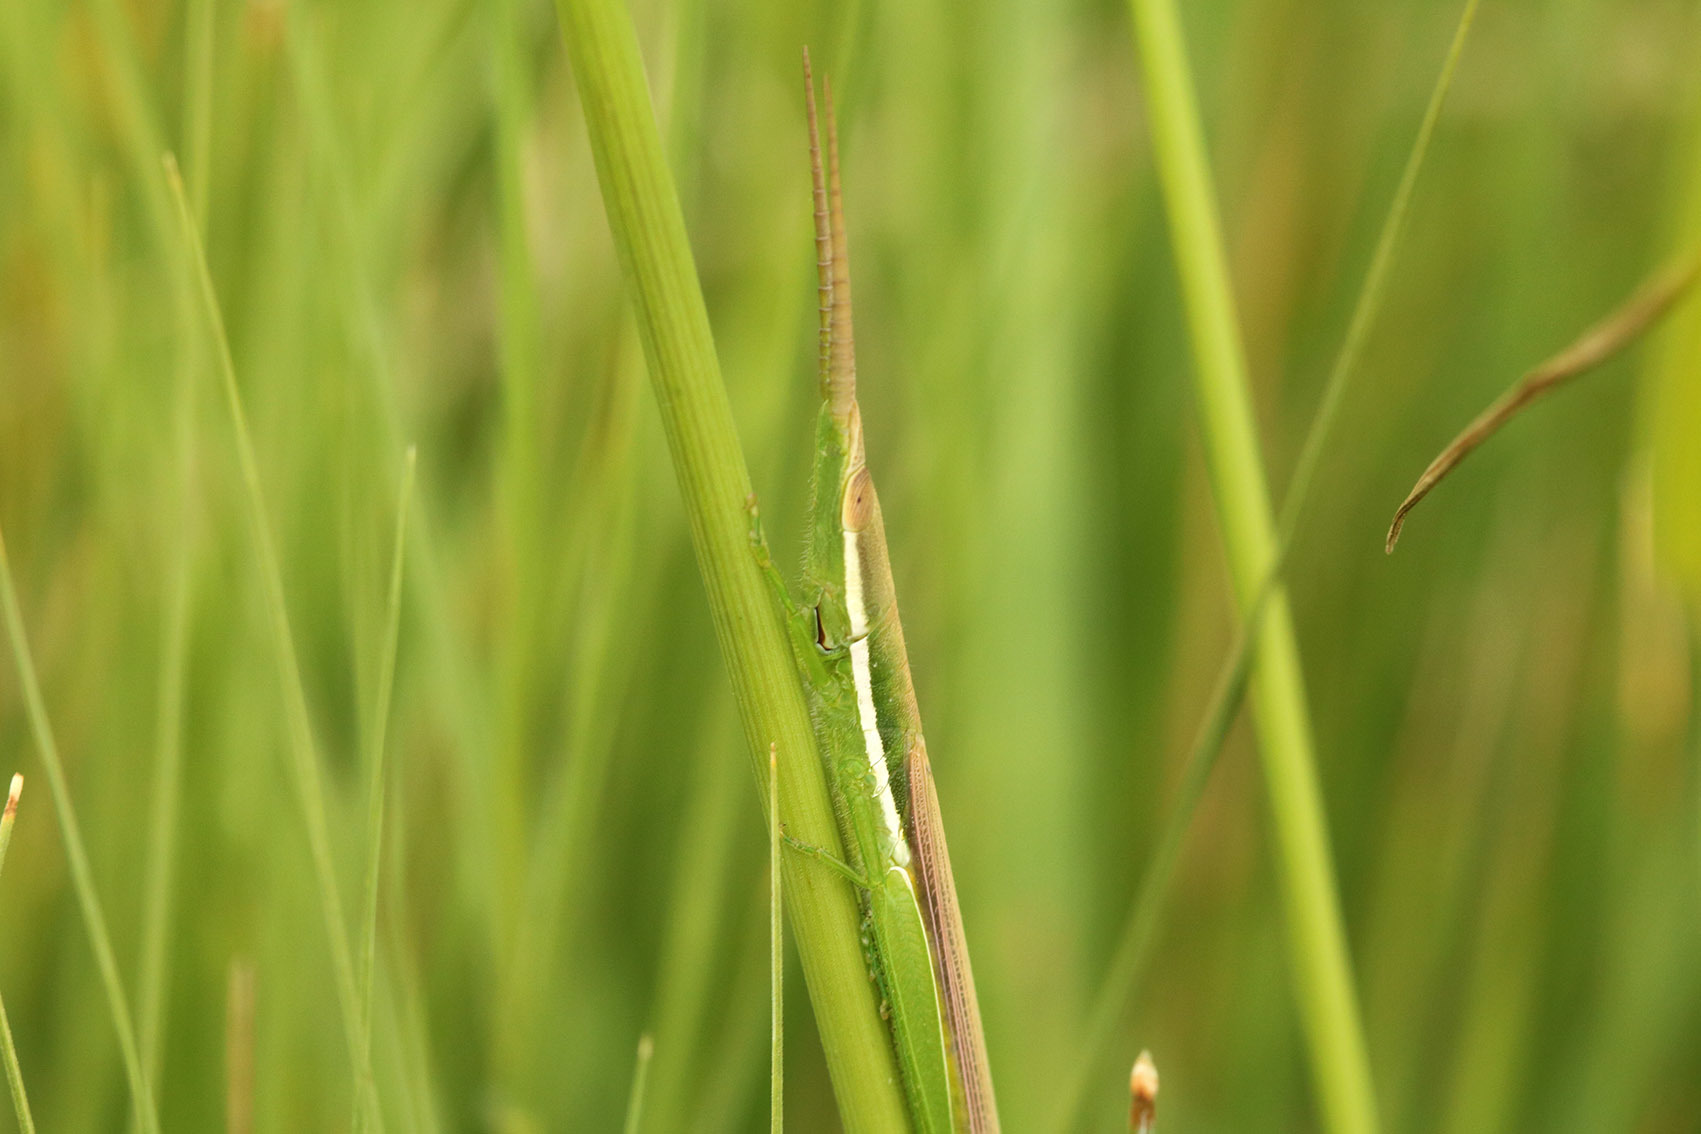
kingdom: Animalia
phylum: Arthropoda
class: Insecta
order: Orthoptera
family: Acrididae
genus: Leptysma
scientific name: Leptysma argentina
